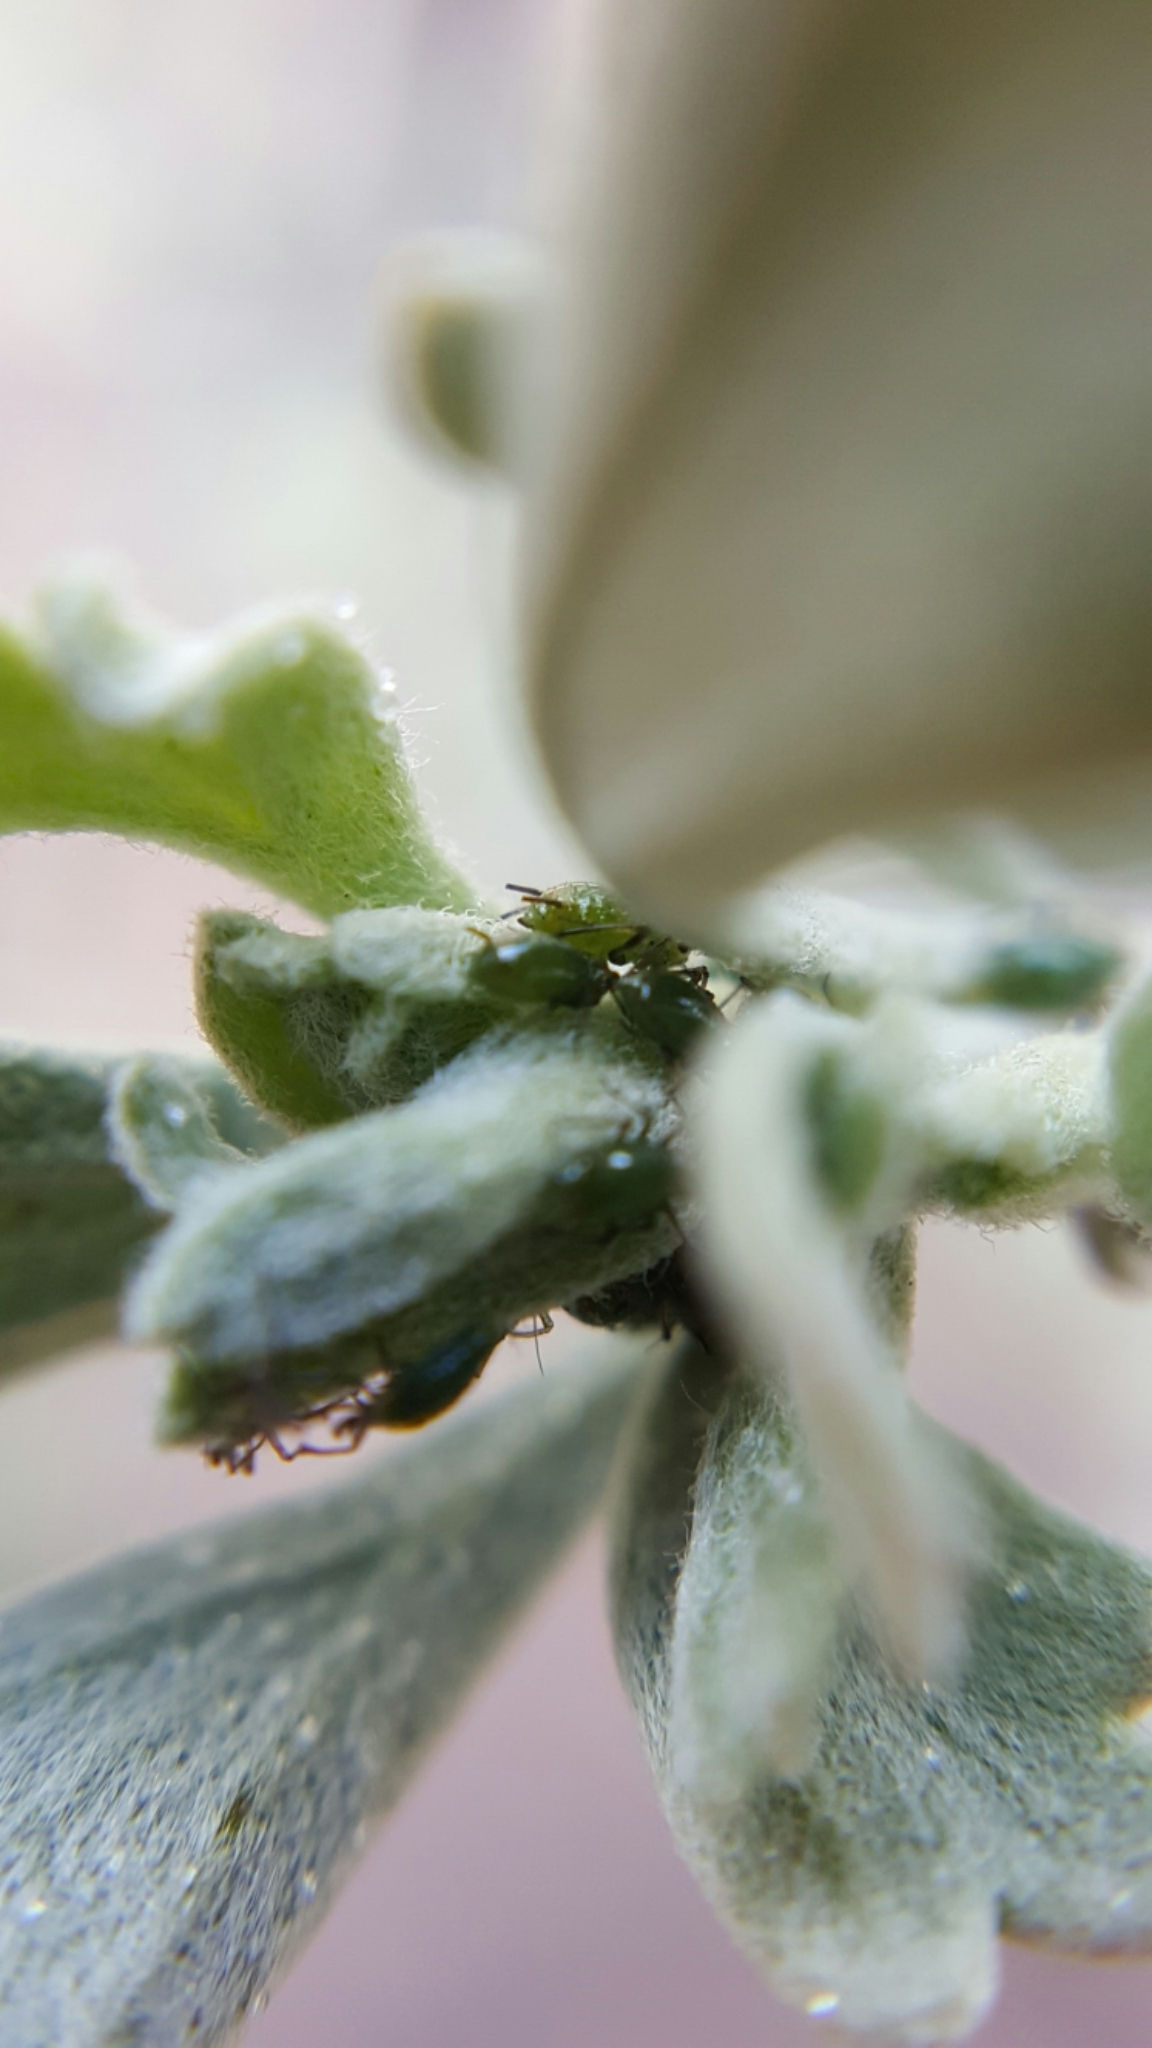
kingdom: Animalia
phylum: Arthropoda
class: Insecta
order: Coleoptera
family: Coccinellidae
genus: Adalia
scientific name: Adalia bipunctata
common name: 2-spot ladybird
